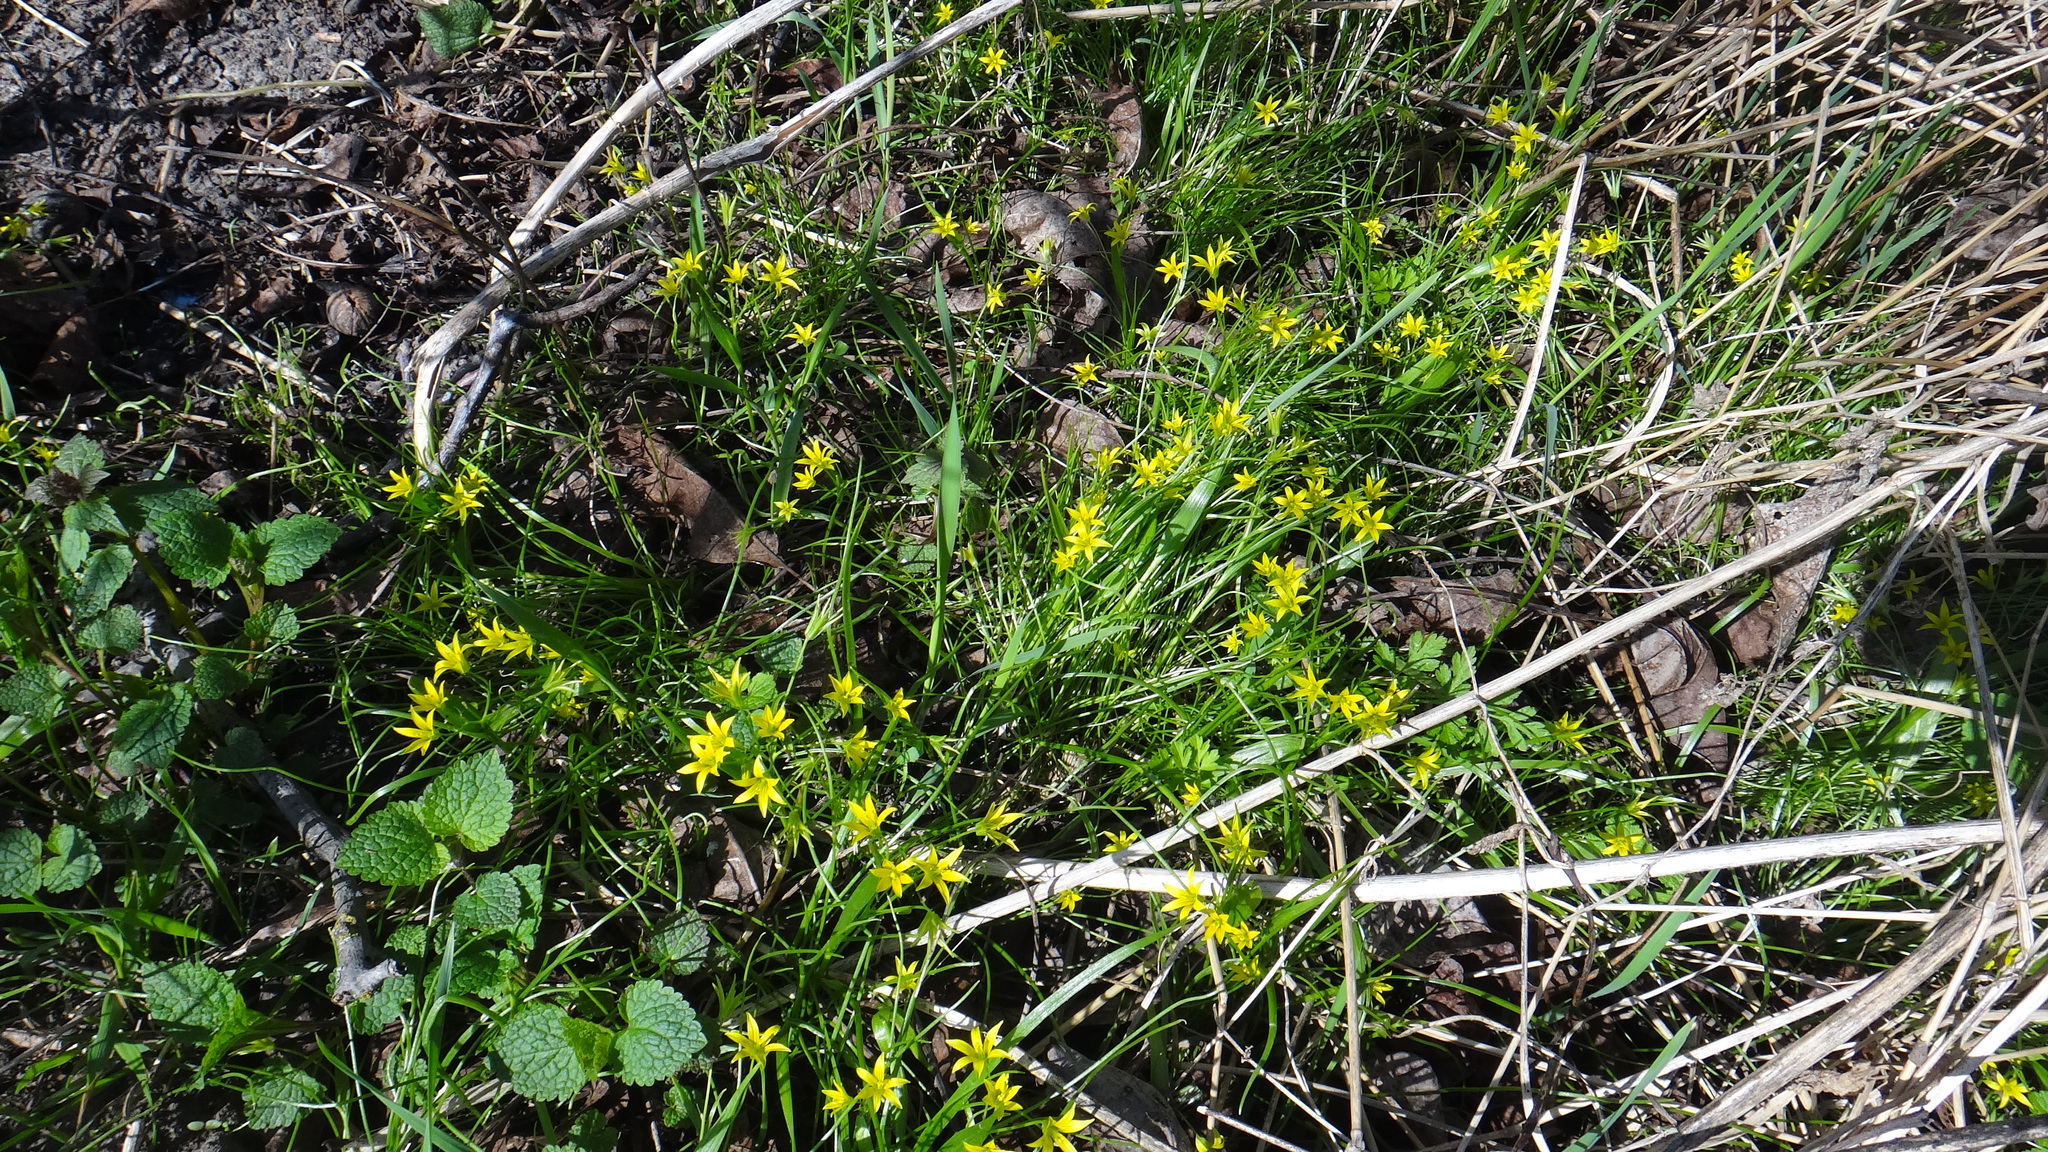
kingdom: Plantae
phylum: Tracheophyta
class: Liliopsida
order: Liliales
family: Liliaceae
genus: Gagea
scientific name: Gagea minima
